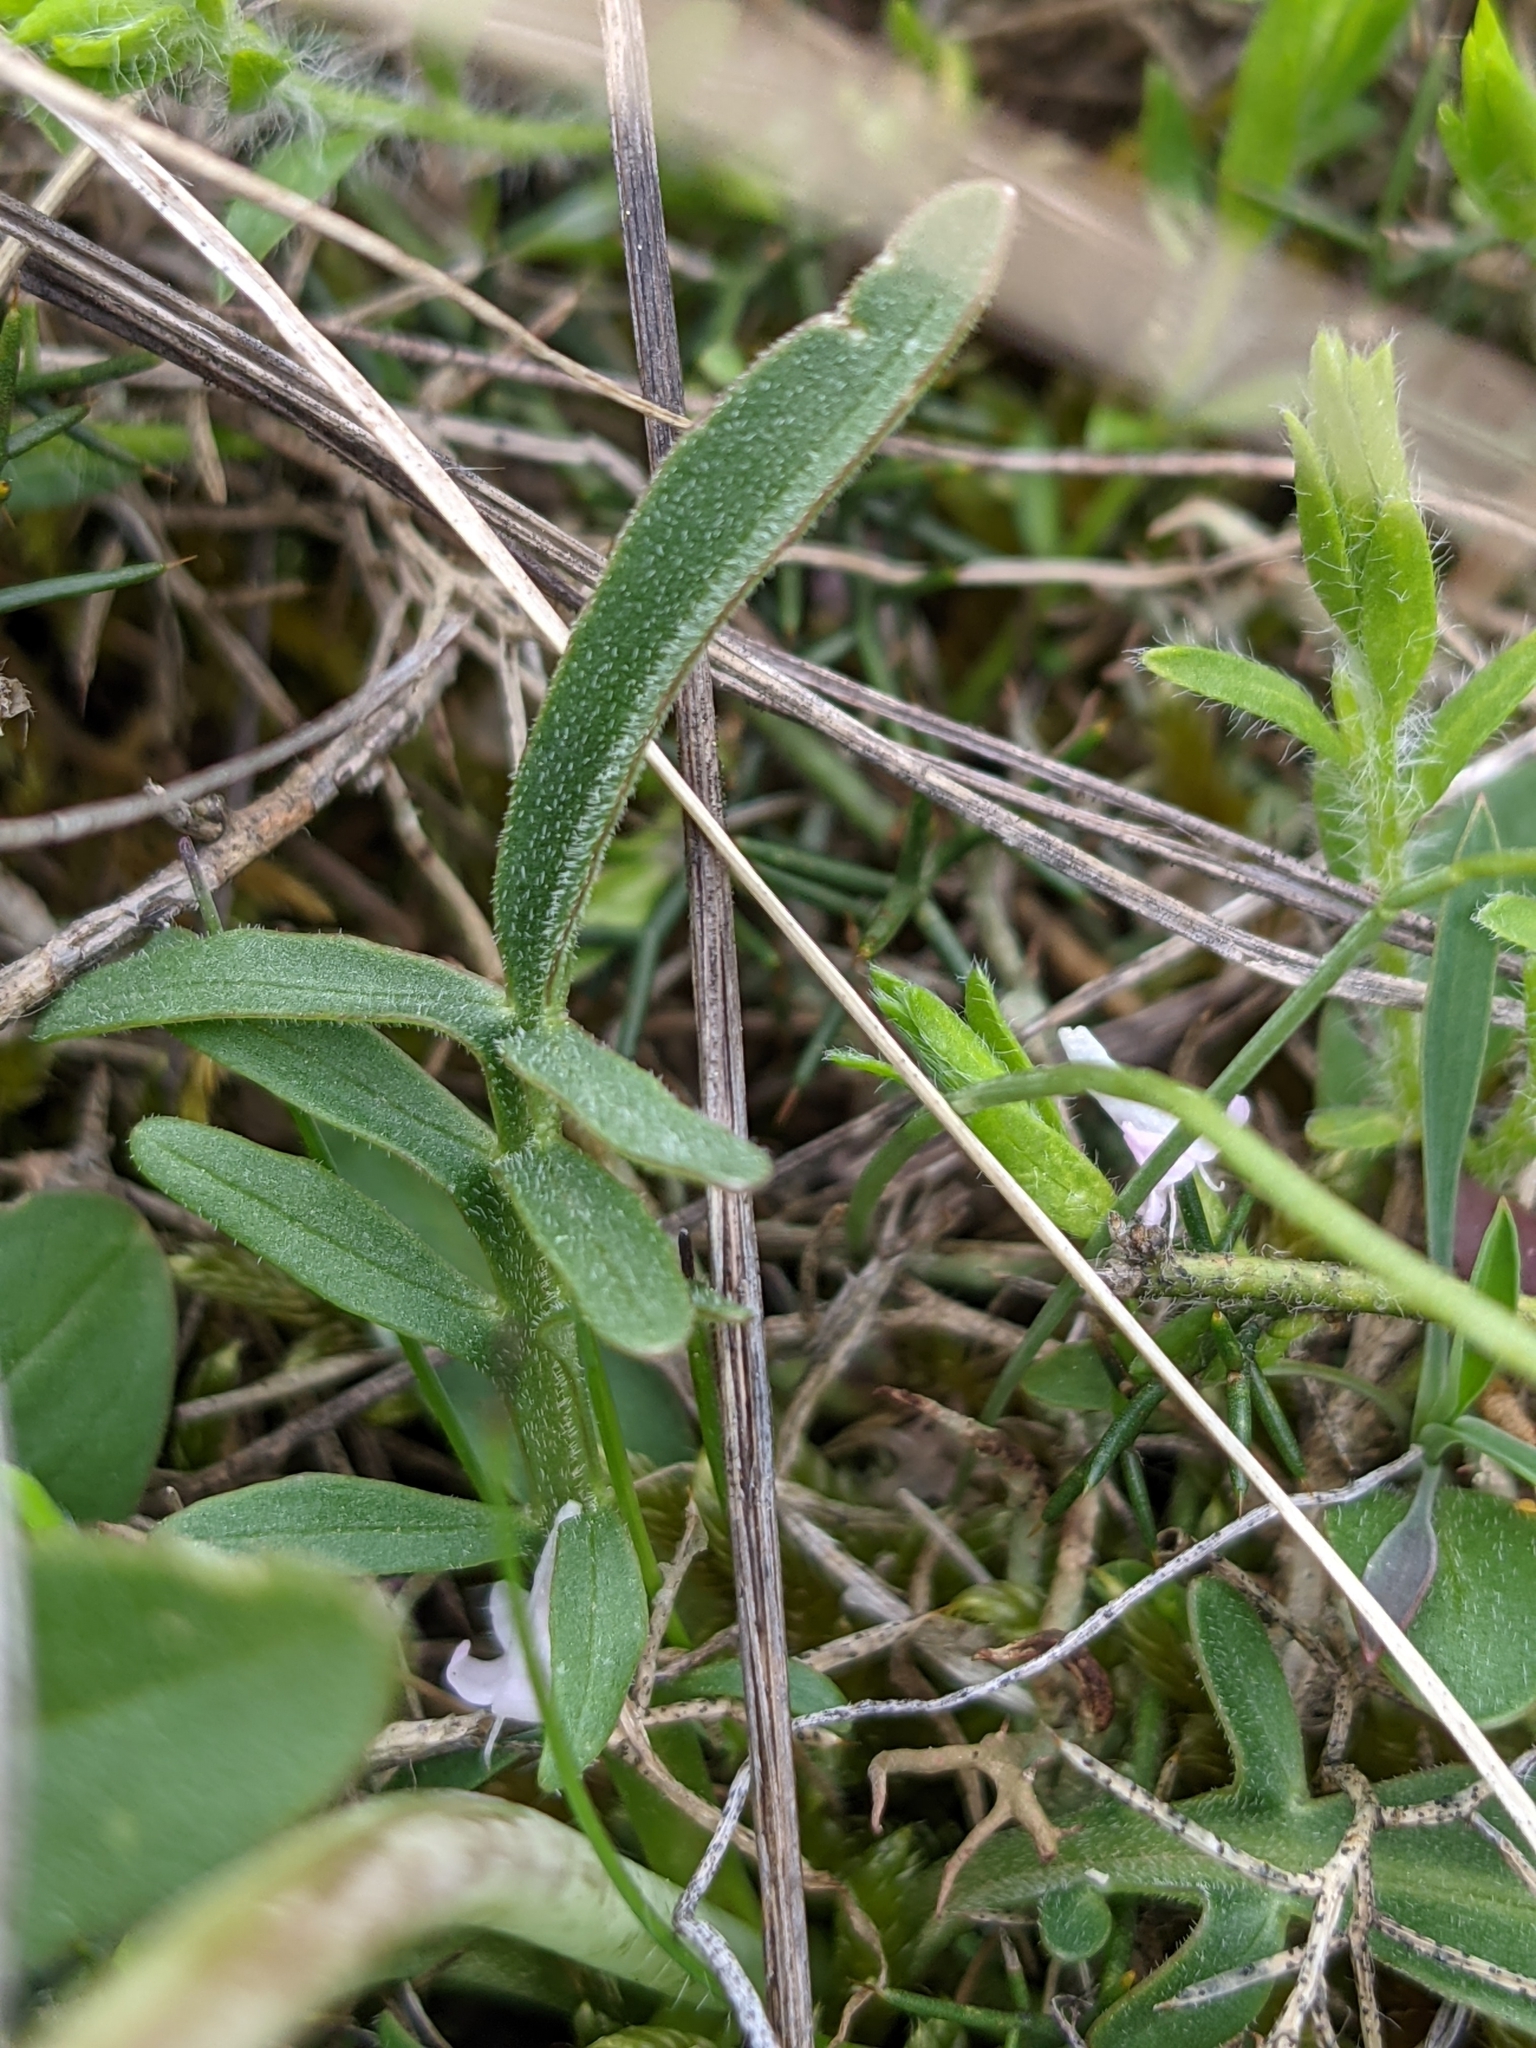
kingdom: Plantae
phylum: Tracheophyta
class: Magnoliopsida
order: Dipsacales
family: Caprifoliaceae
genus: Valeriana
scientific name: Valeriana tuberosa
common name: Tuberous valerian
